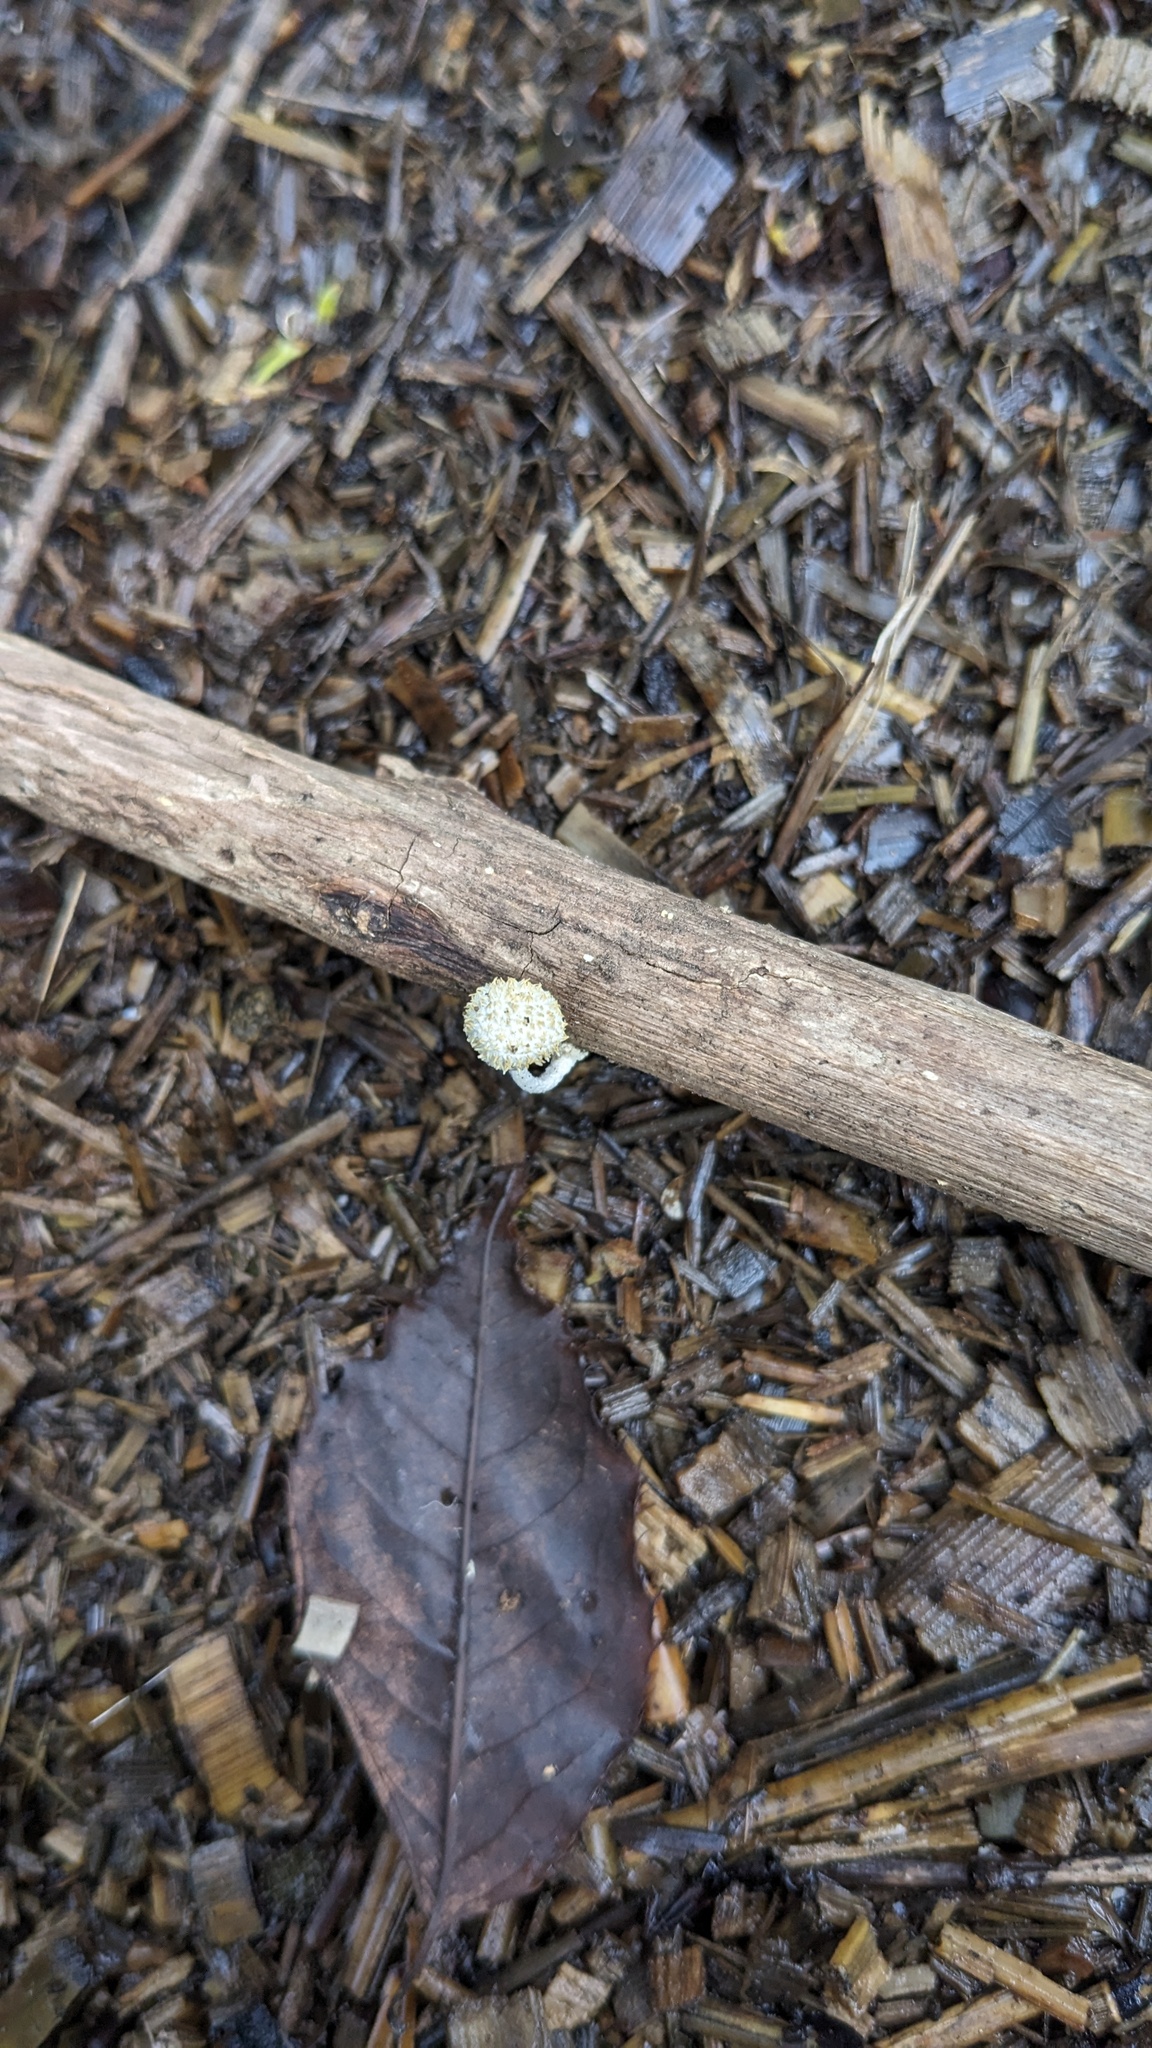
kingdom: Fungi
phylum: Basidiomycota
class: Agaricomycetes
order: Agaricales
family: Physalacriaceae
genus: Cyptotrama
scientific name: Cyptotrama asprata
